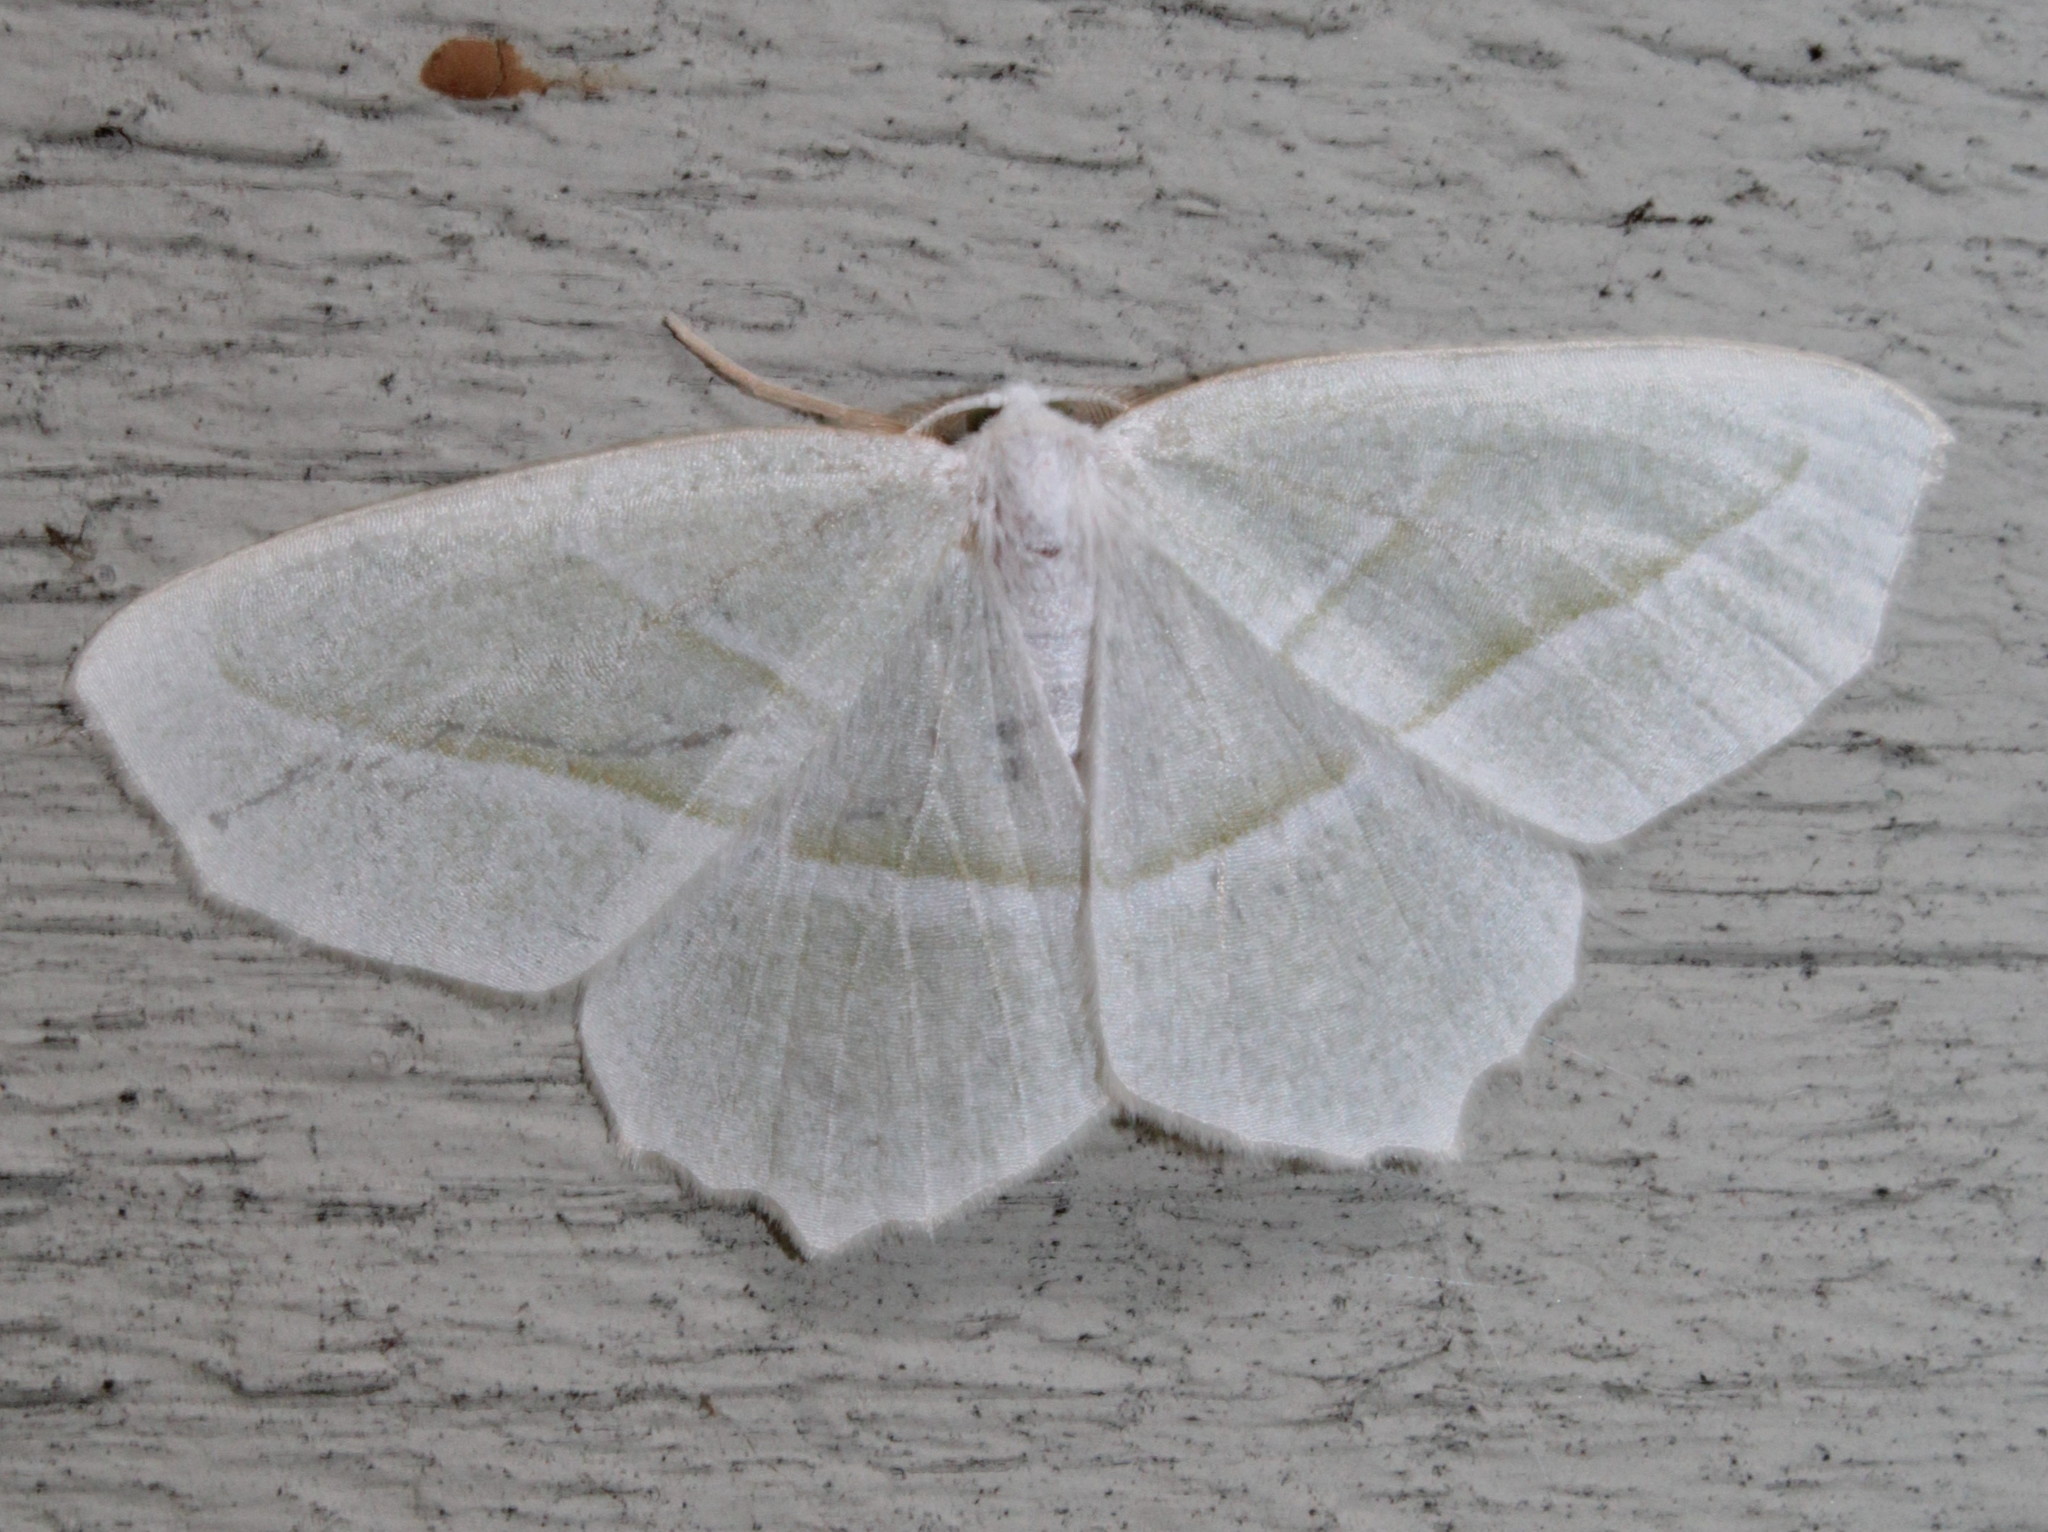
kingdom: Animalia
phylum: Arthropoda
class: Insecta
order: Lepidoptera
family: Geometridae
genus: Campaea
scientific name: Campaea perlata
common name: Fringed looper
